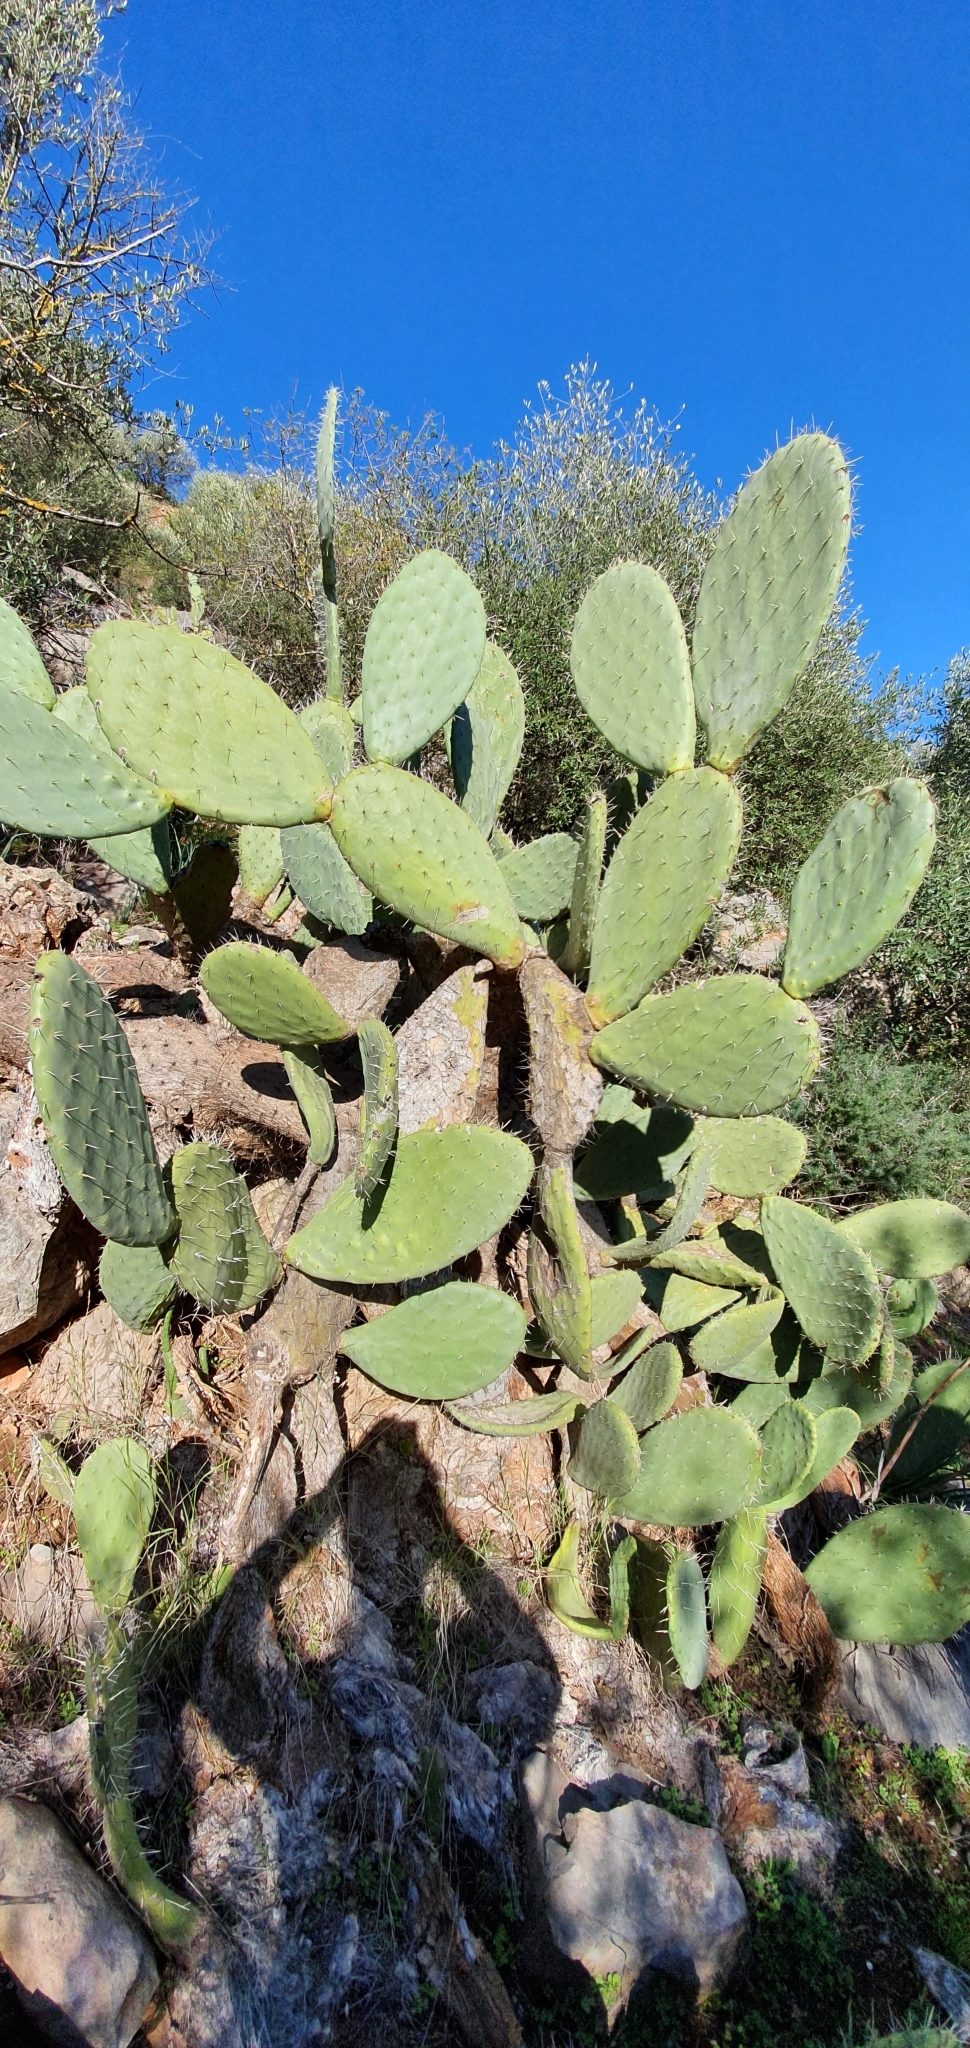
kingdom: Plantae
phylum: Tracheophyta
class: Magnoliopsida
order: Caryophyllales
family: Cactaceae
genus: Opuntia
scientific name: Opuntia maxima
